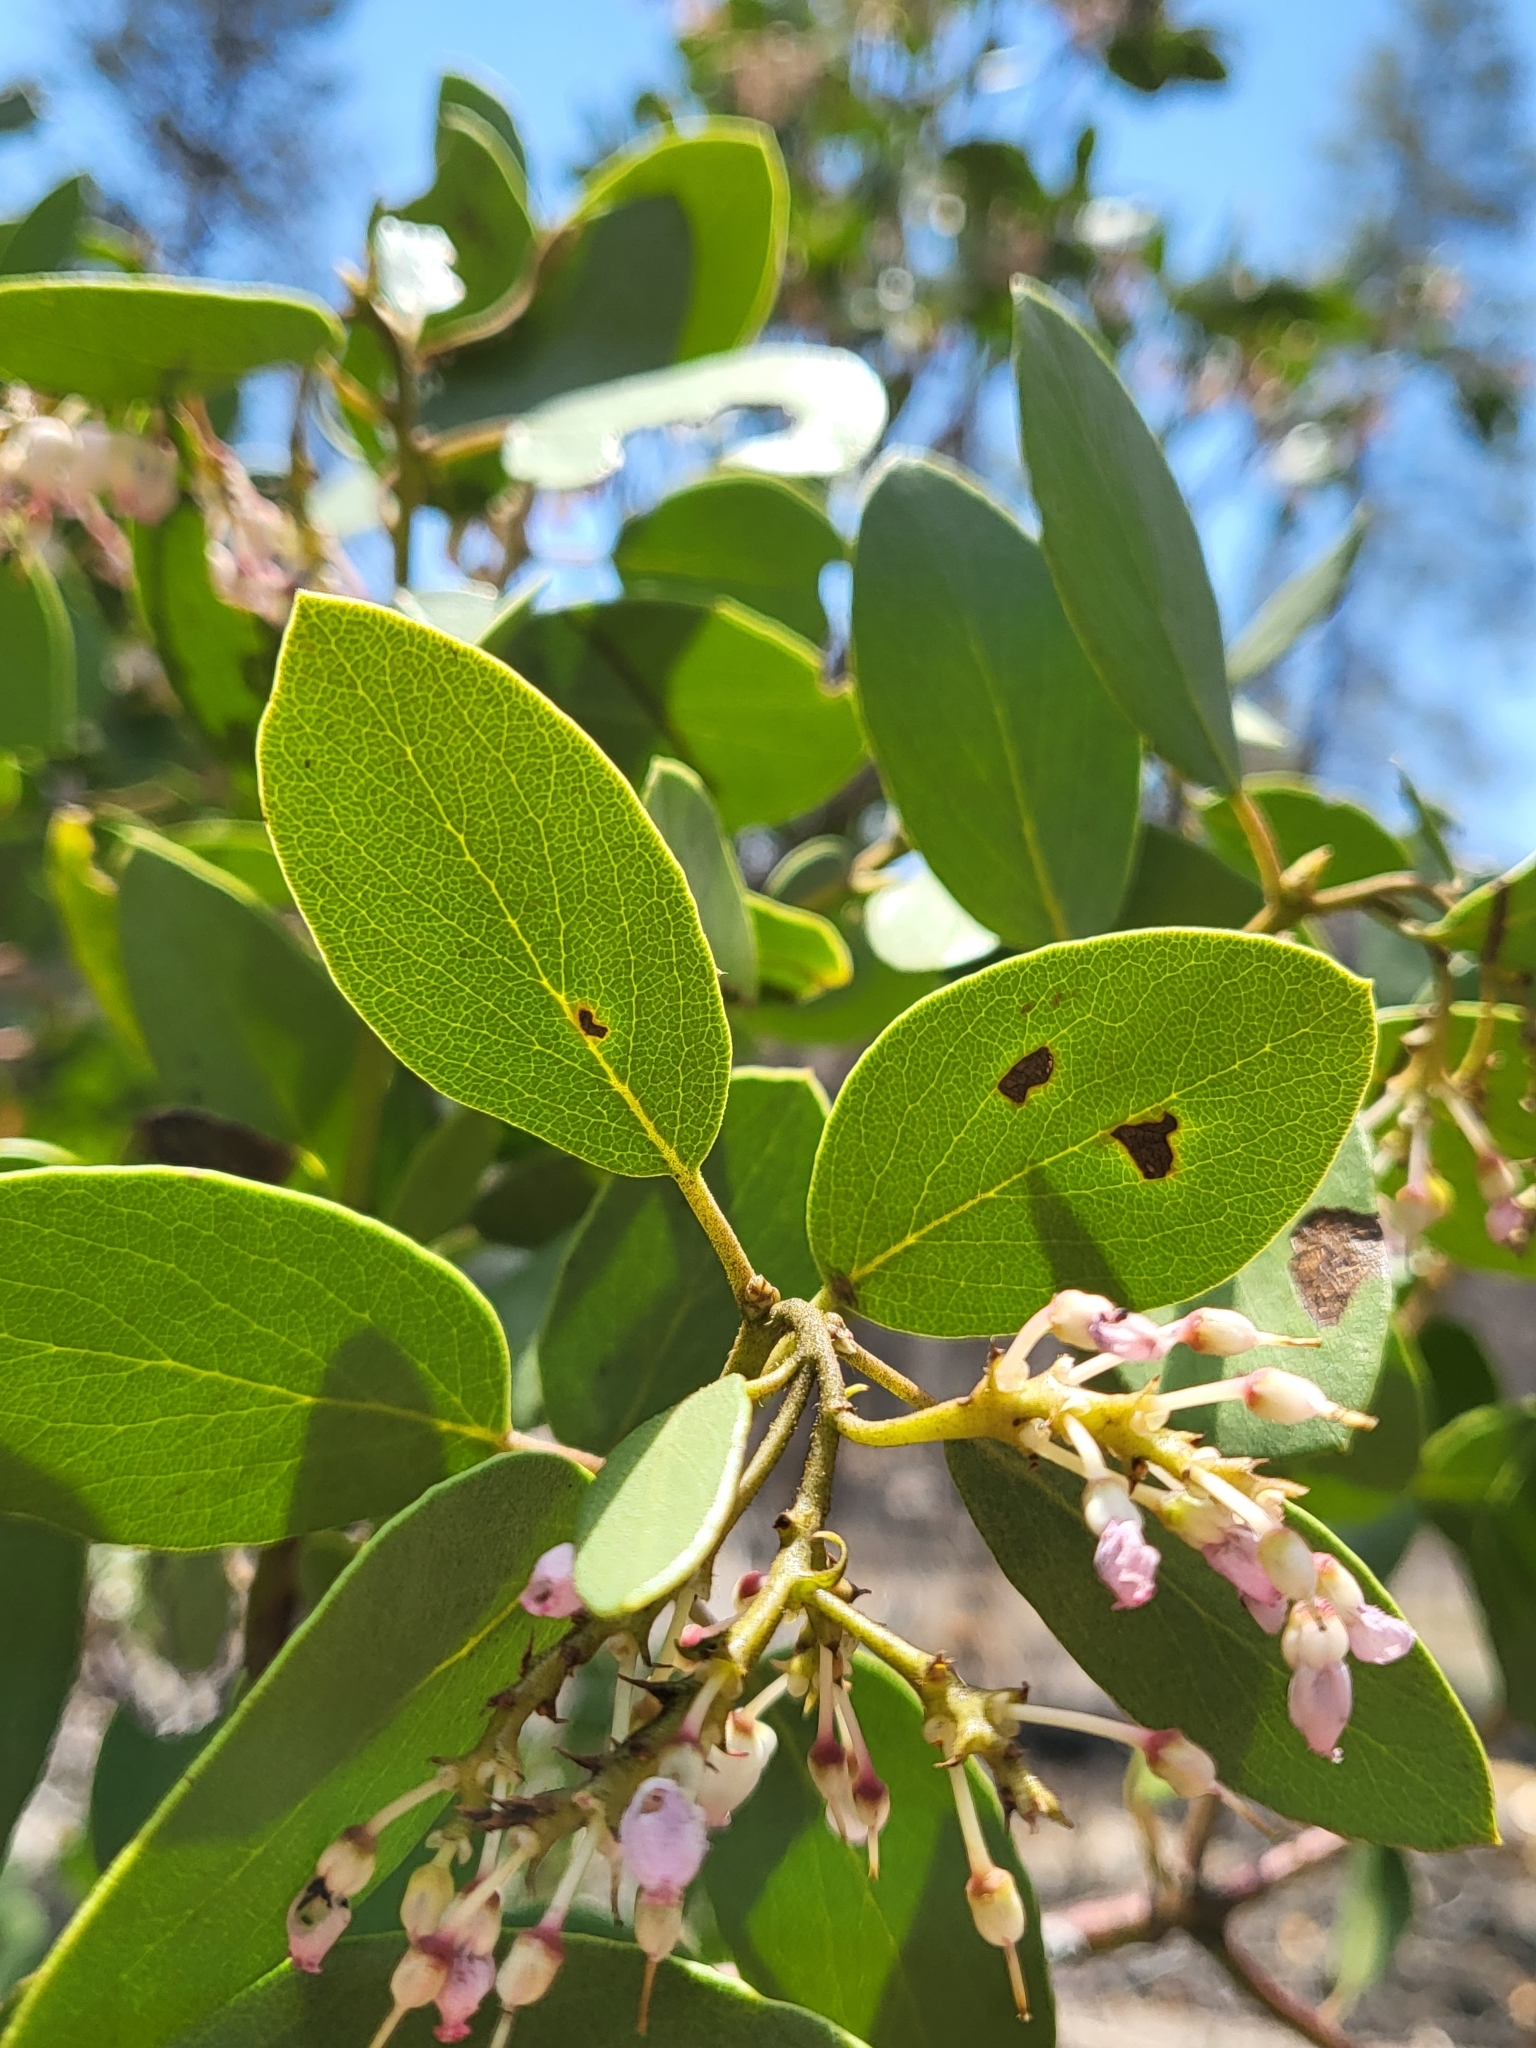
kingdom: Plantae
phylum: Tracheophyta
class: Magnoliopsida
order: Ericales
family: Ericaceae
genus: Arctostaphylos
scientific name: Arctostaphylos patula
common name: Green-leaf manzanita
